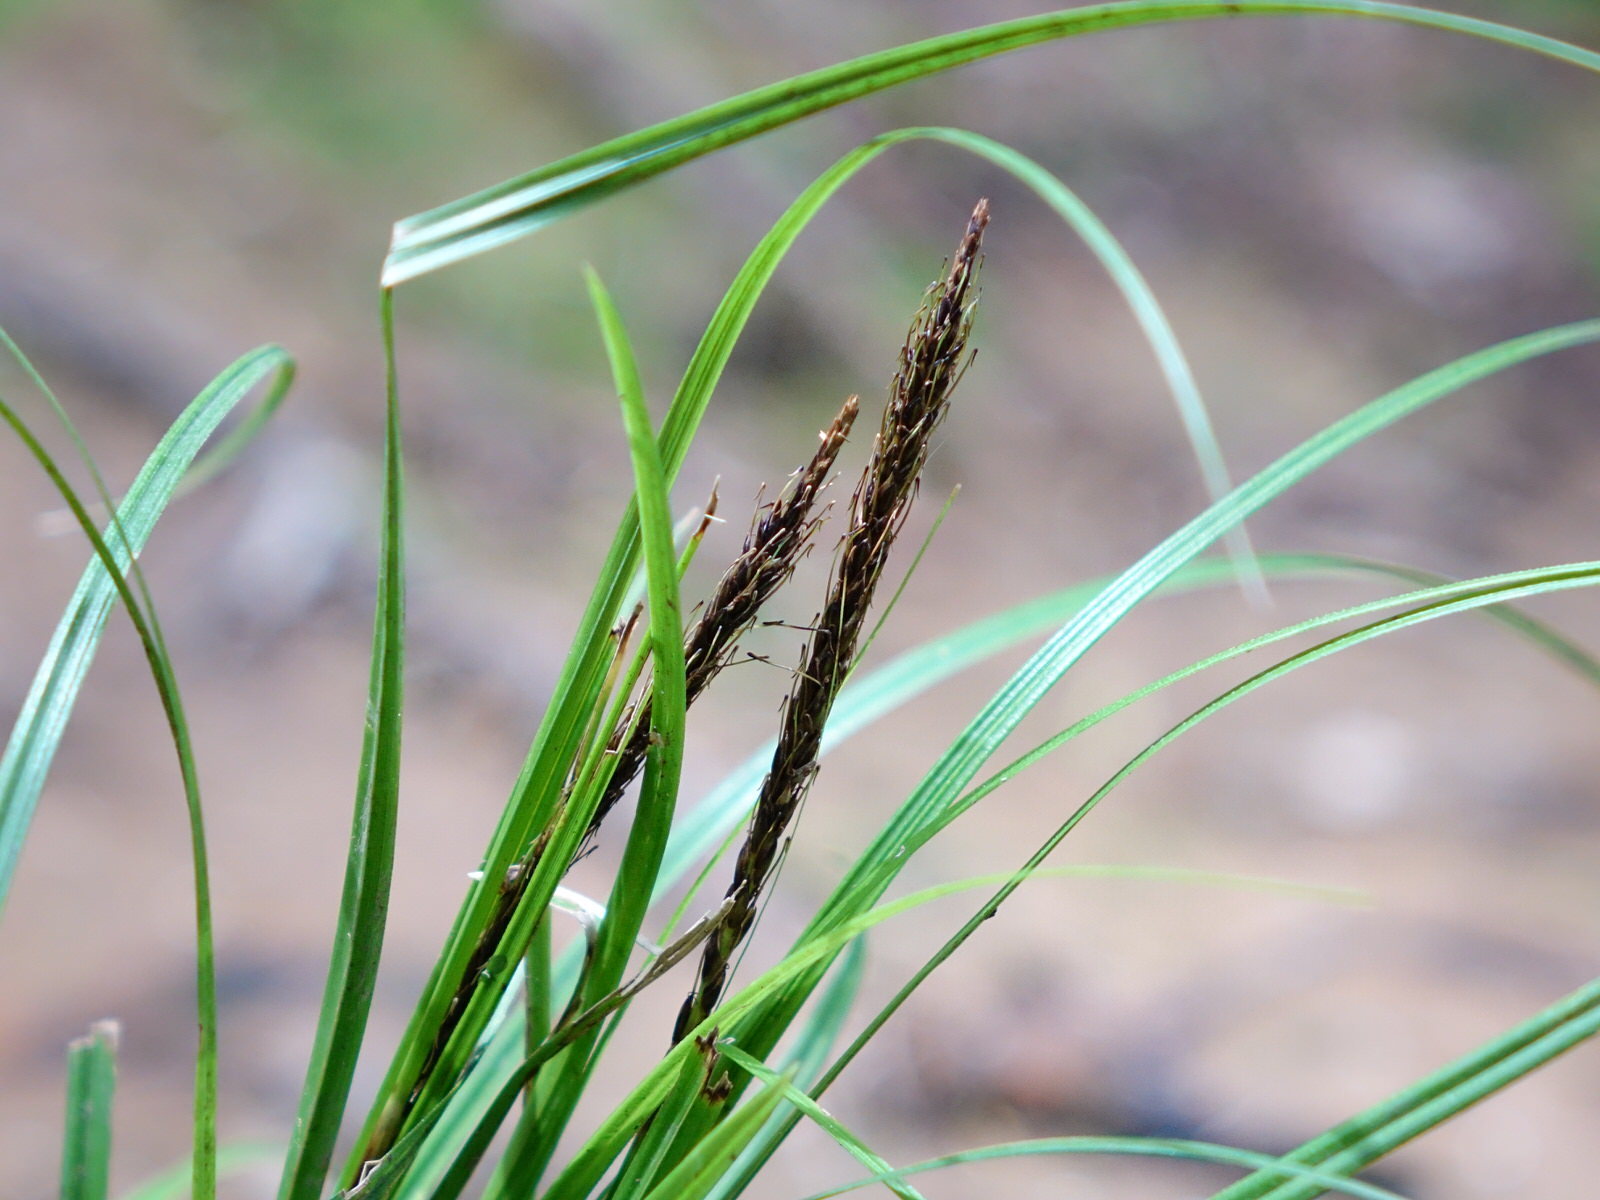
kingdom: Plantae
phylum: Tracheophyta
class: Liliopsida
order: Poales
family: Cyperaceae
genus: Carex
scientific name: Carex uncinata
